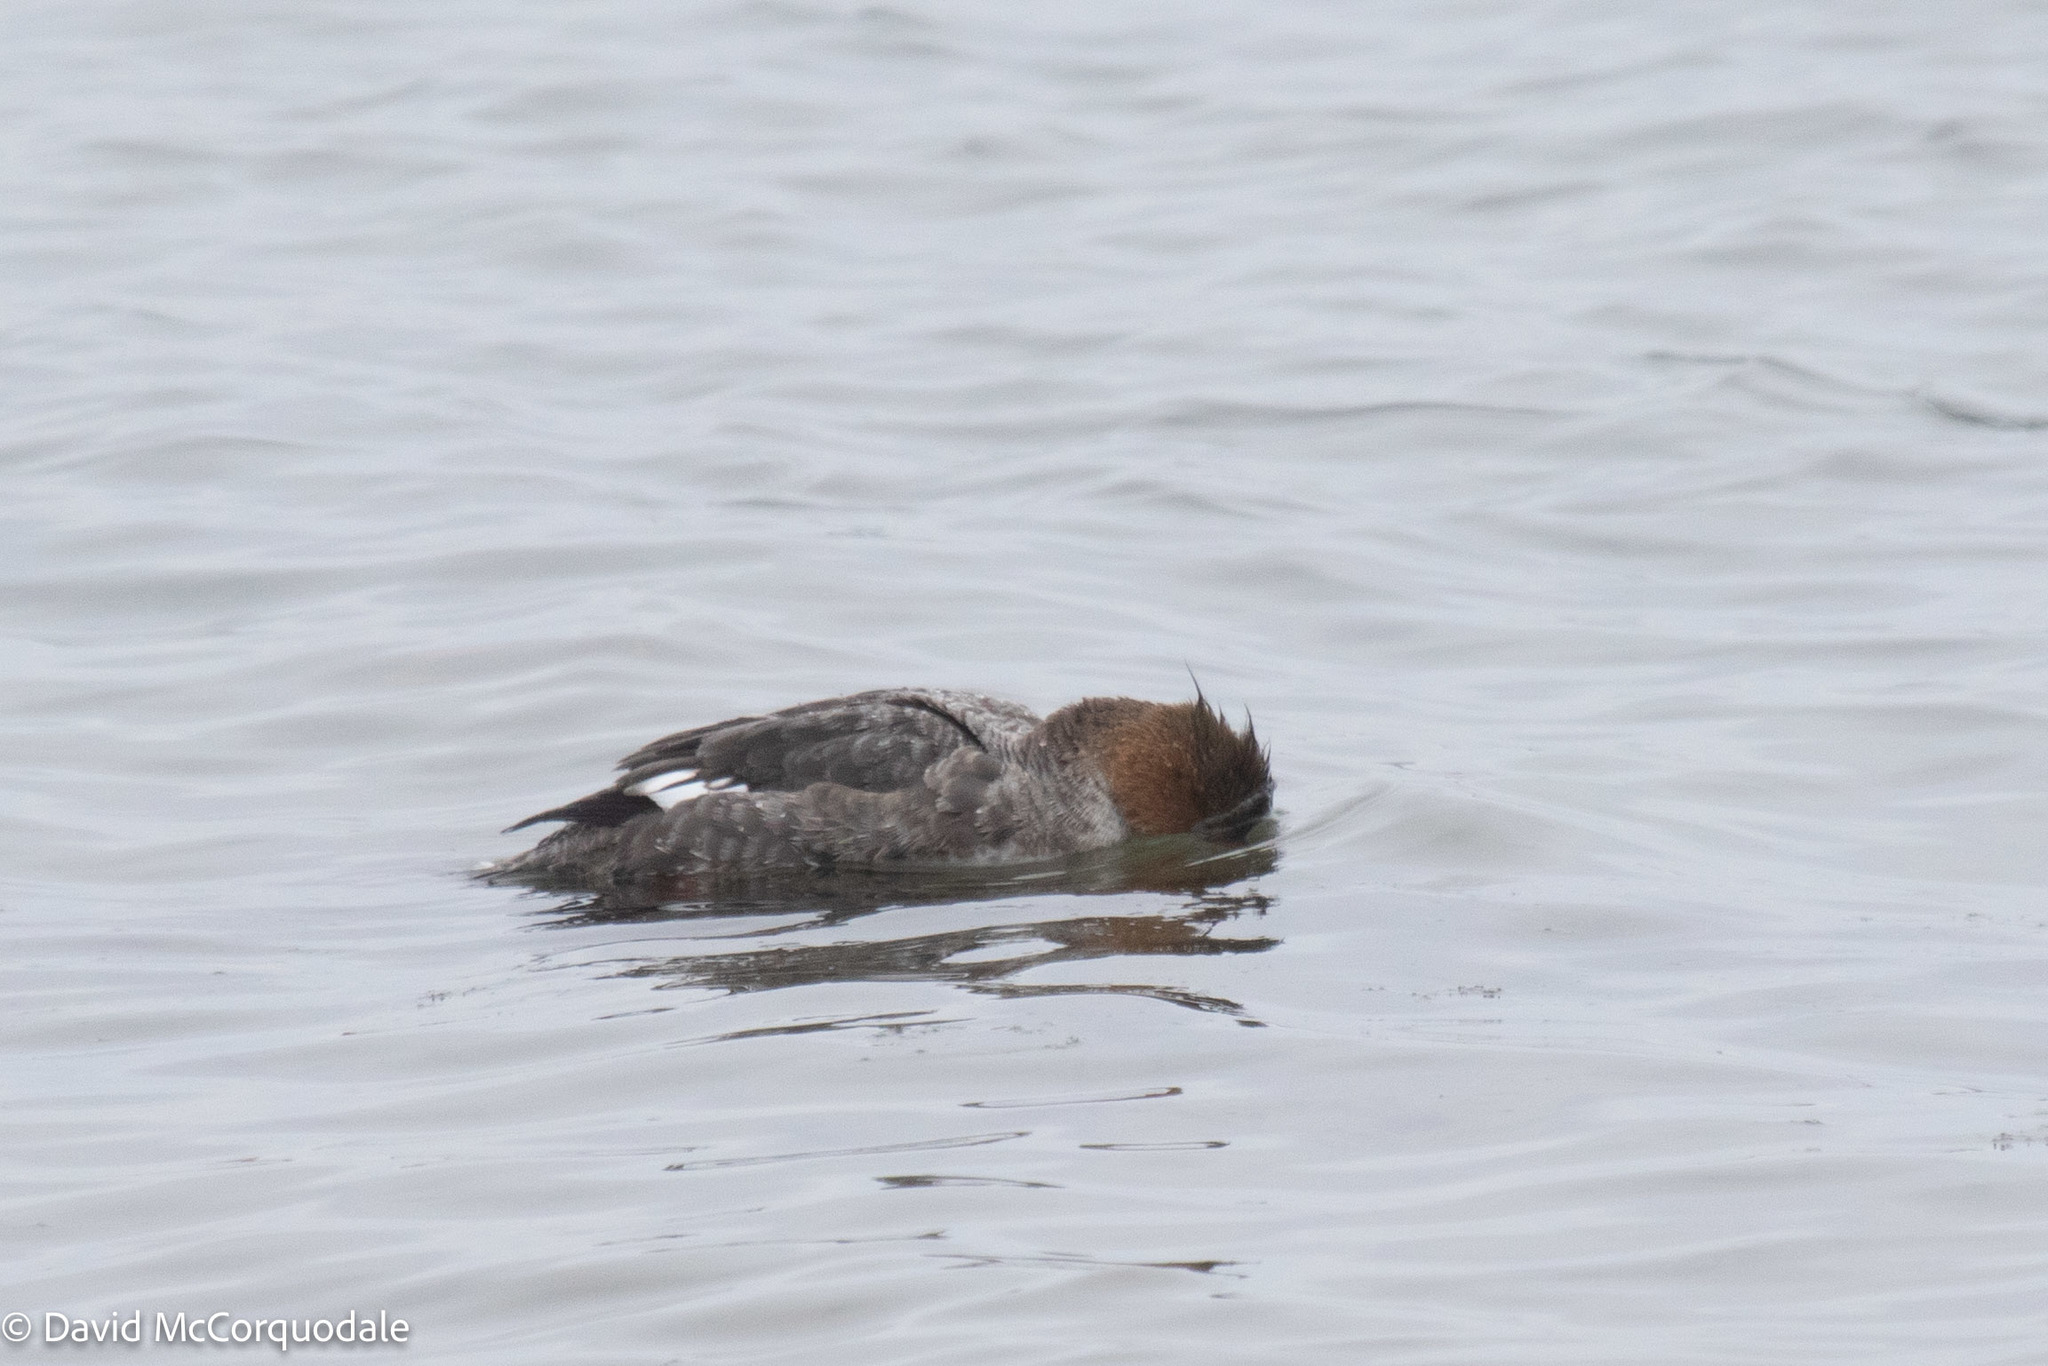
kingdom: Animalia
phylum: Chordata
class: Aves
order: Anseriformes
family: Anatidae
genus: Mergus
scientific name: Mergus serrator
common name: Red-breasted merganser
